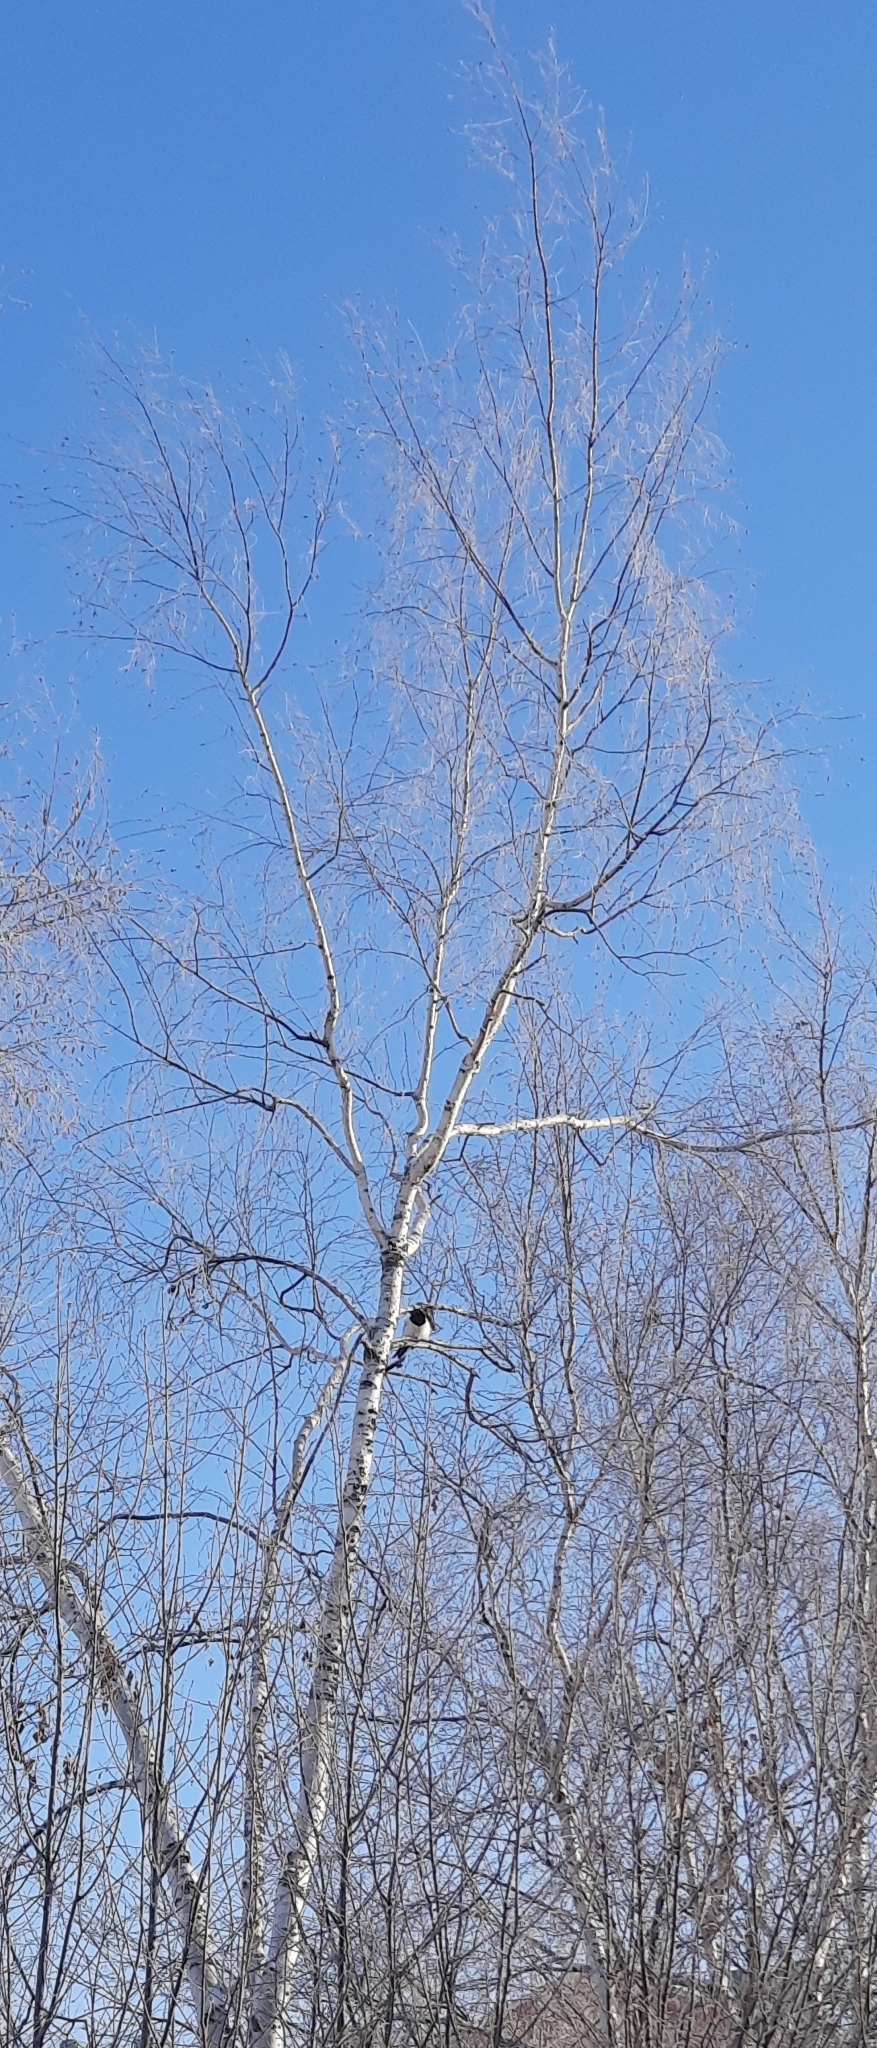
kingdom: Animalia
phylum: Chordata
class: Aves
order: Passeriformes
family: Corvidae
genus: Pica
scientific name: Pica pica
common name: Eurasian magpie
